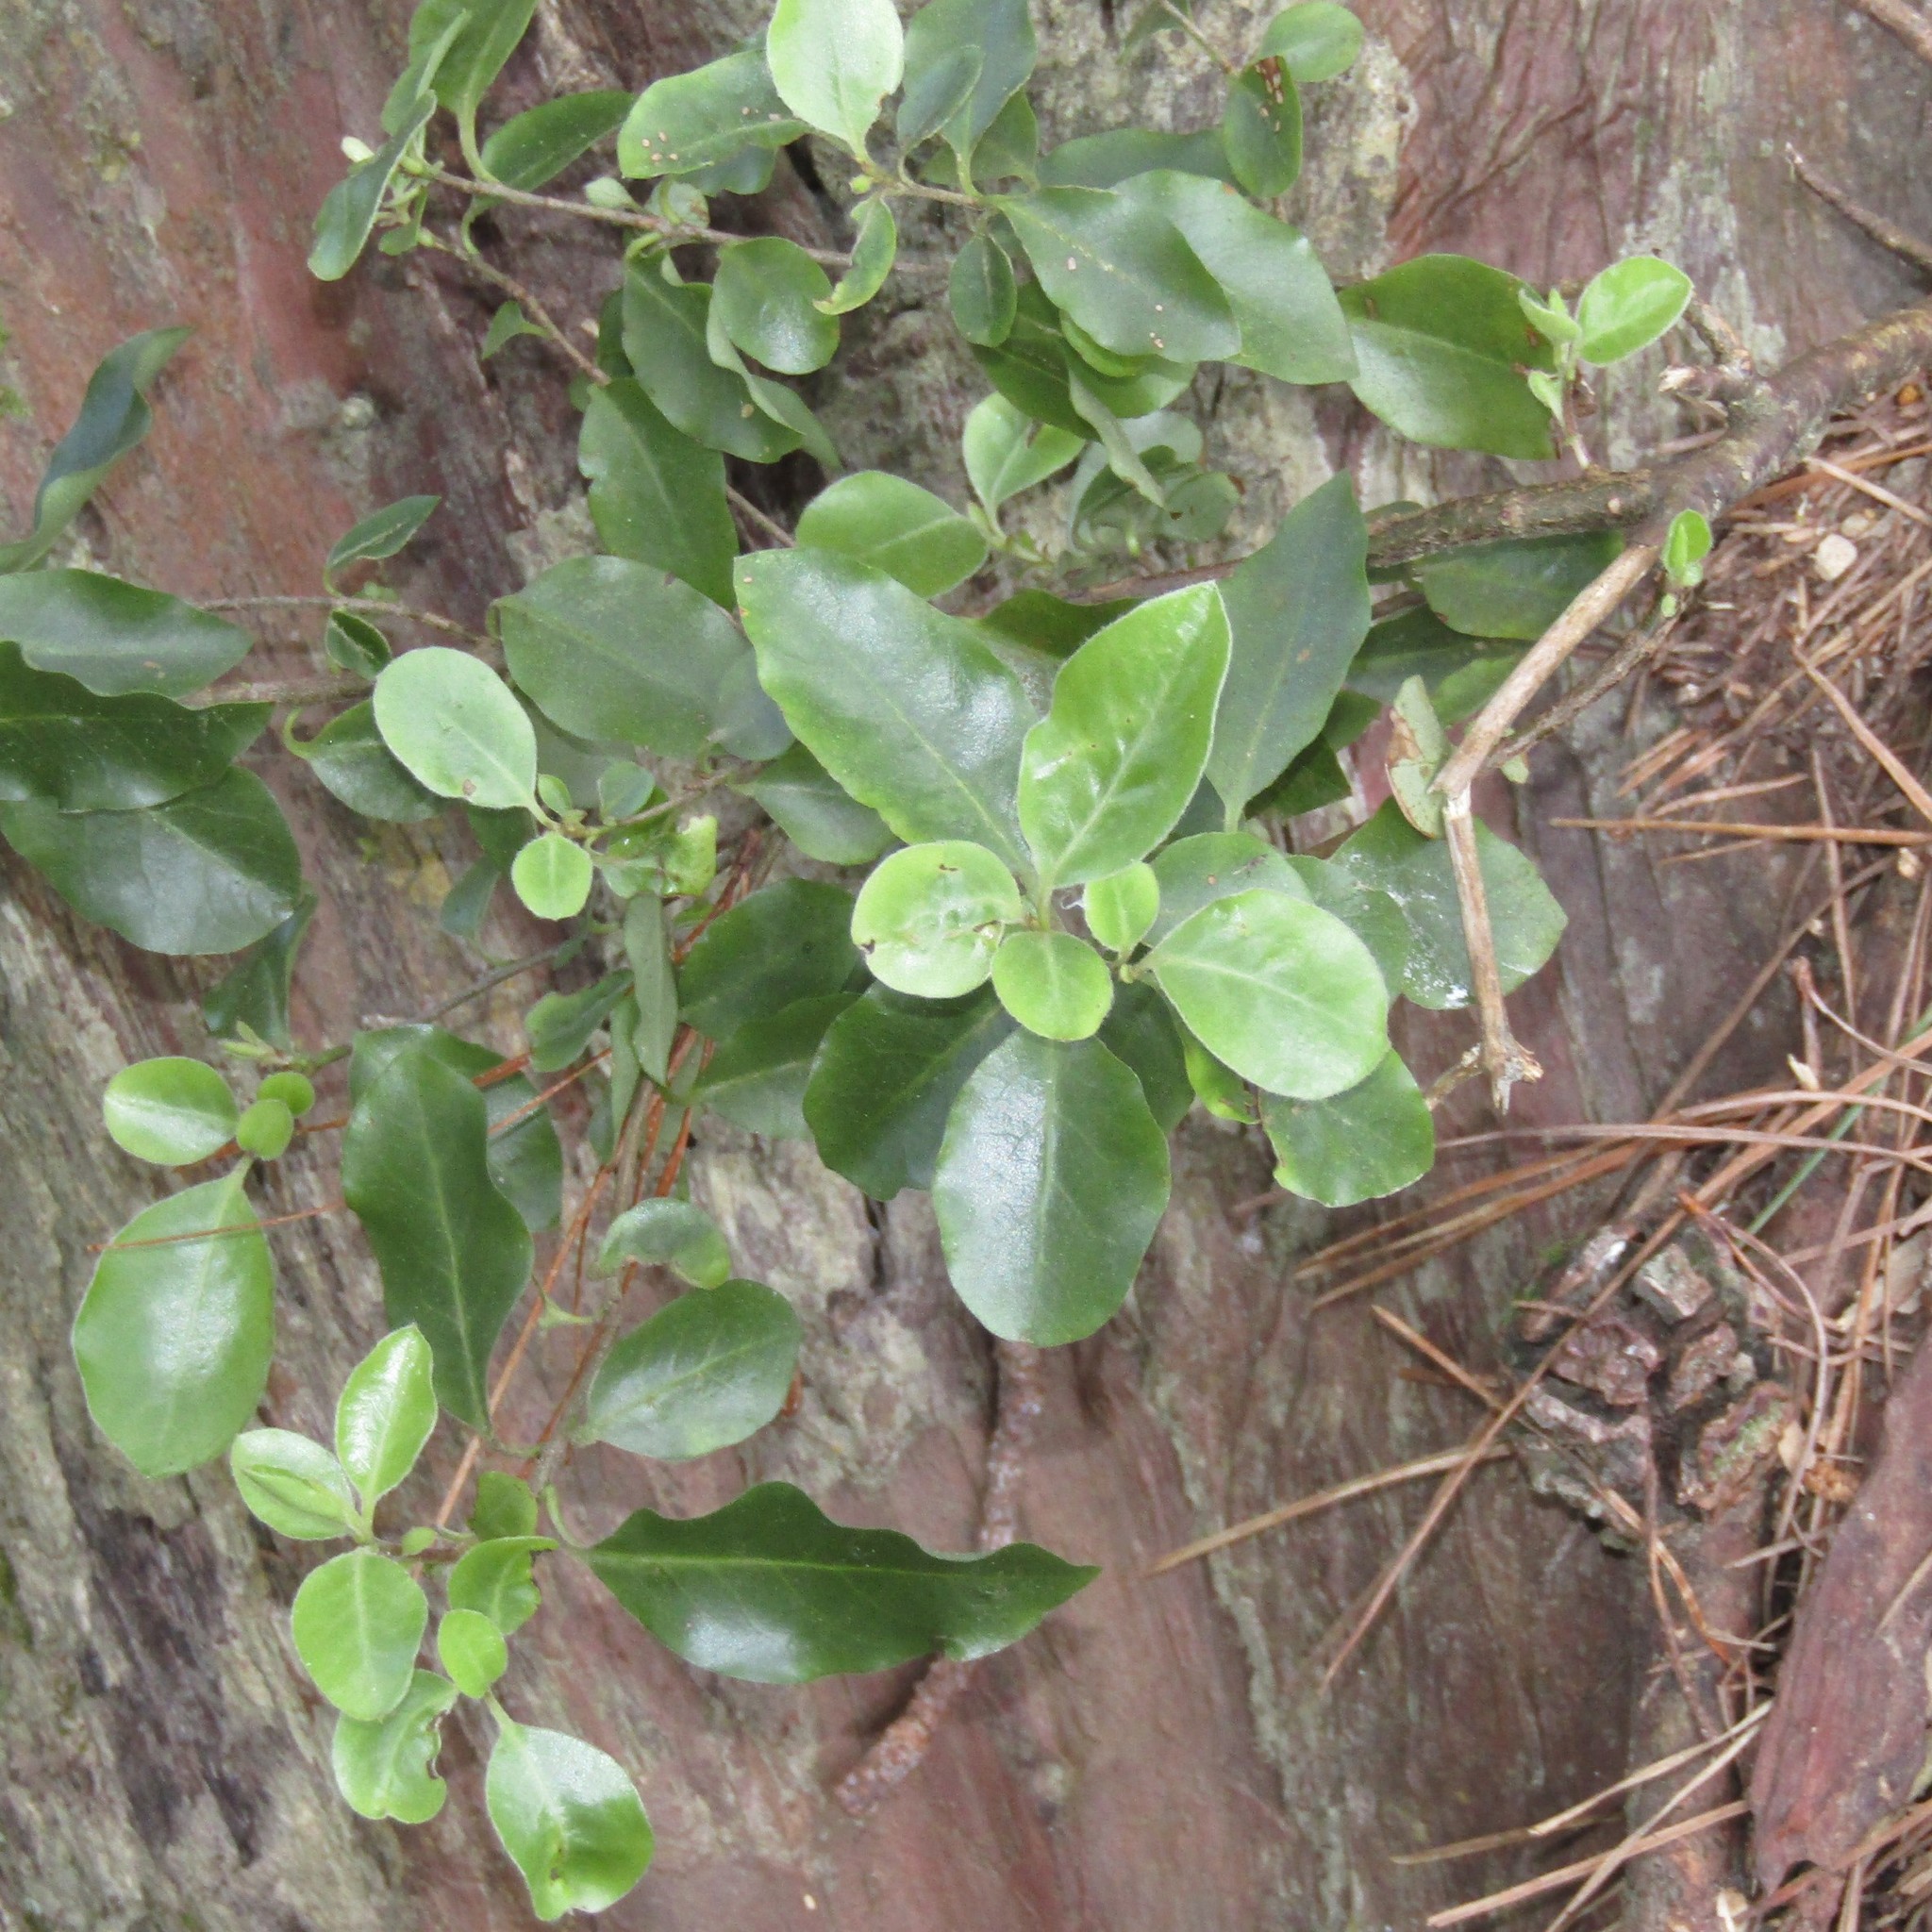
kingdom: Plantae
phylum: Tracheophyta
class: Magnoliopsida
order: Apiales
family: Pittosporaceae
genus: Pittosporum
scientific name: Pittosporum tenuifolium
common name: Kohuhu
